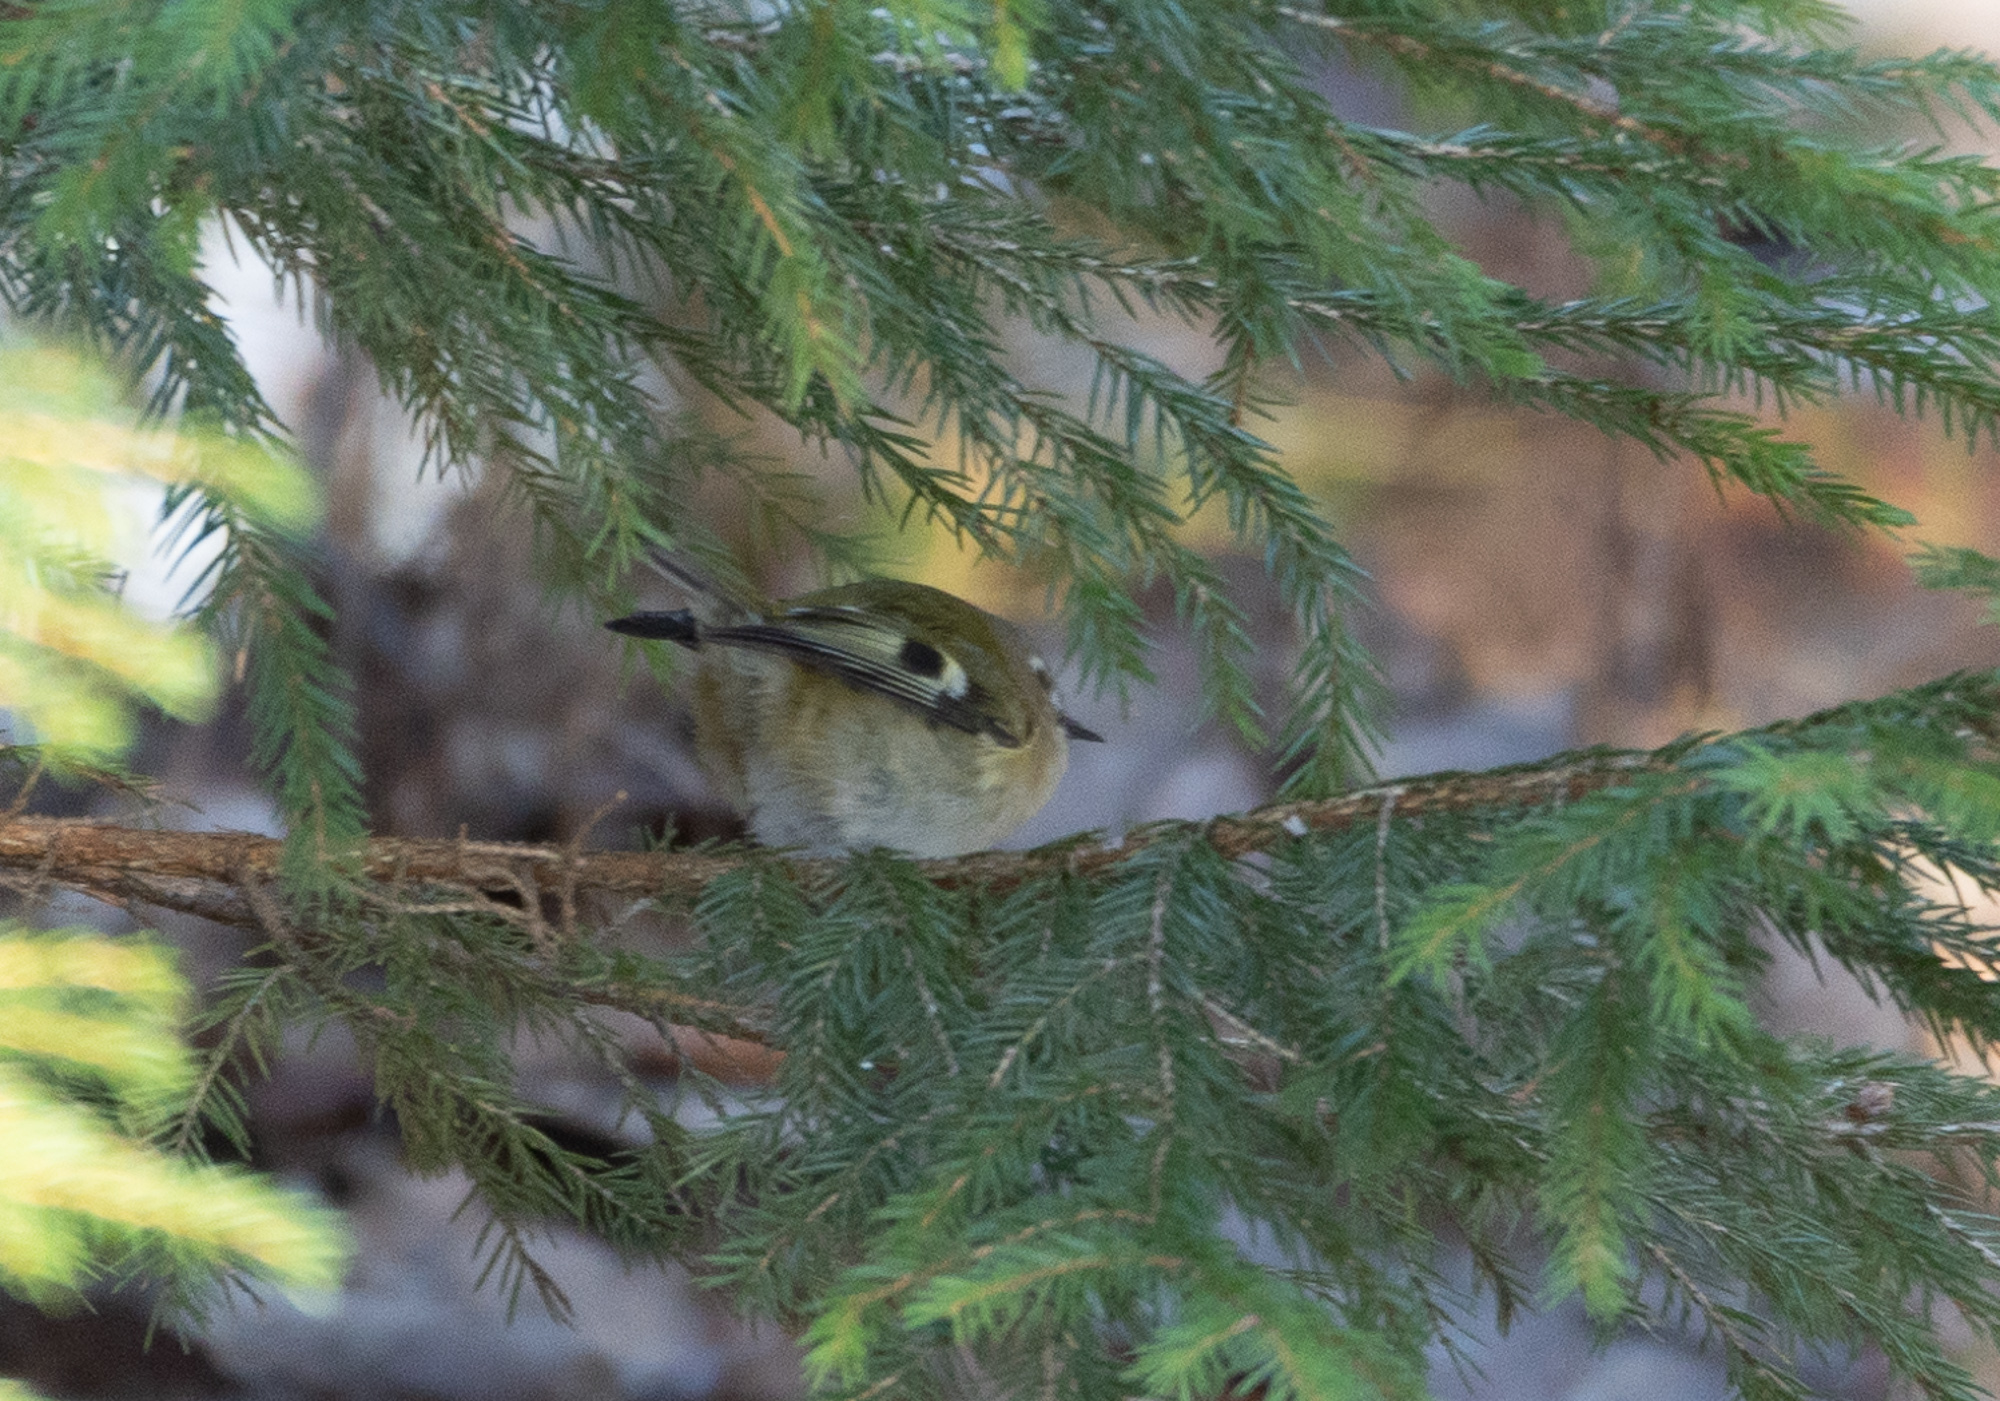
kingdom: Animalia
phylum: Chordata
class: Aves
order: Passeriformes
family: Regulidae
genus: Regulus
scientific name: Regulus regulus
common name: Goldcrest
